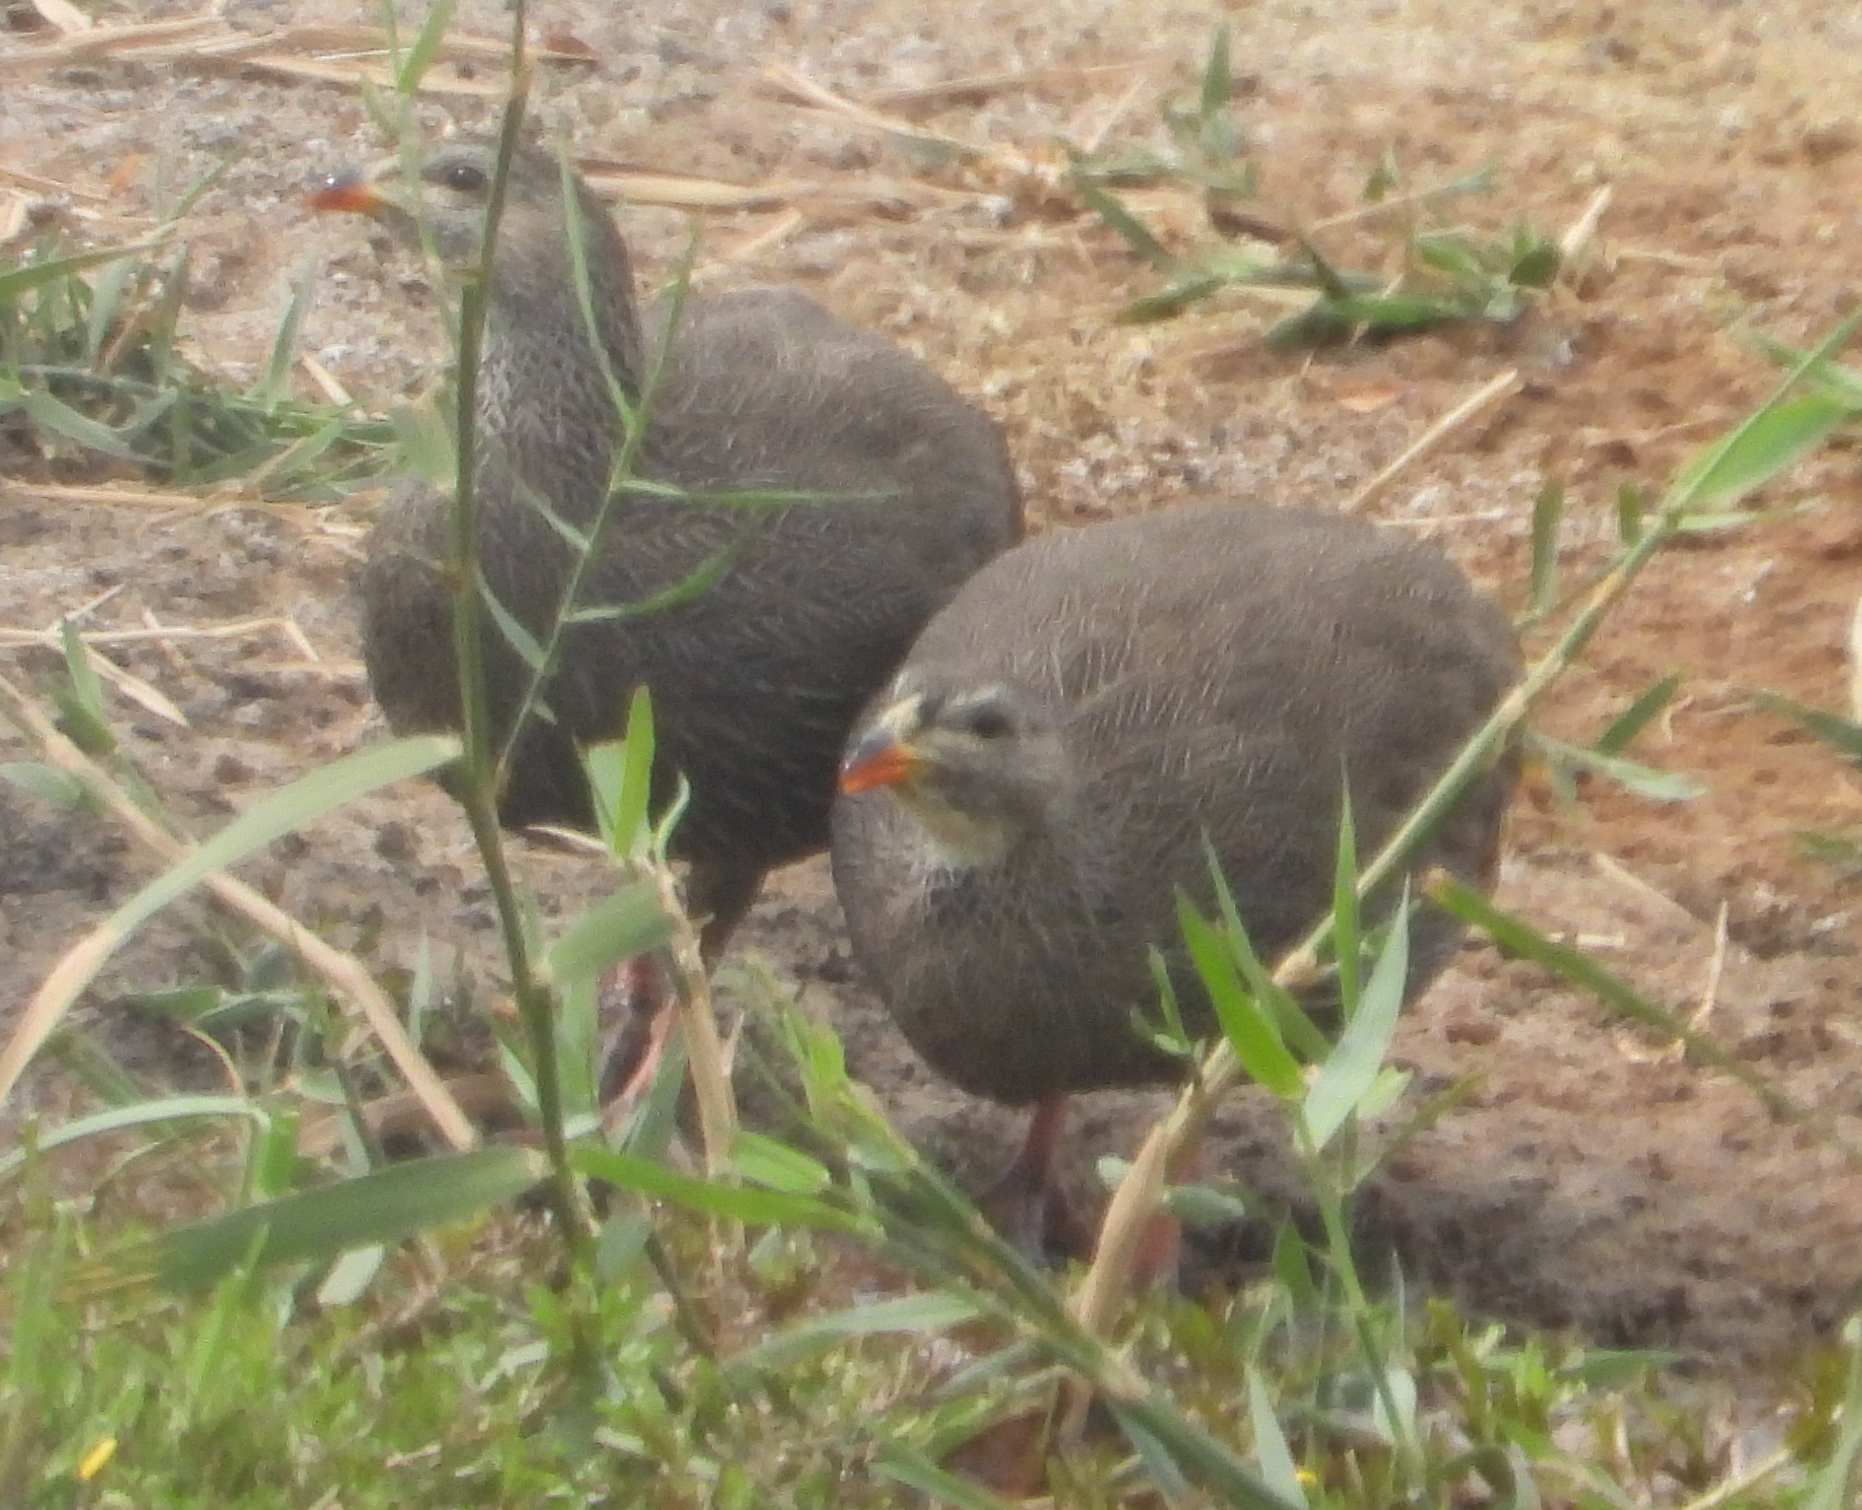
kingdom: Animalia
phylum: Chordata
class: Aves
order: Galliformes
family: Phasianidae
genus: Pternistis
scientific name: Pternistis capensis
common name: Cape spurfowl
